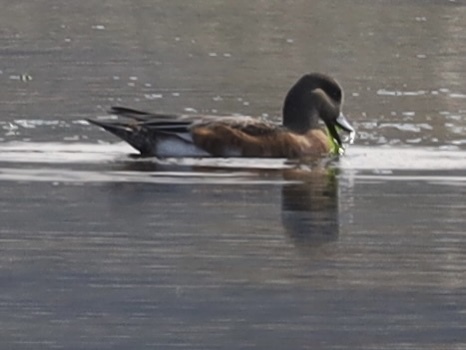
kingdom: Animalia
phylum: Chordata
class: Aves
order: Anseriformes
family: Anatidae
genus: Mareca
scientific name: Mareca americana
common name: American wigeon
